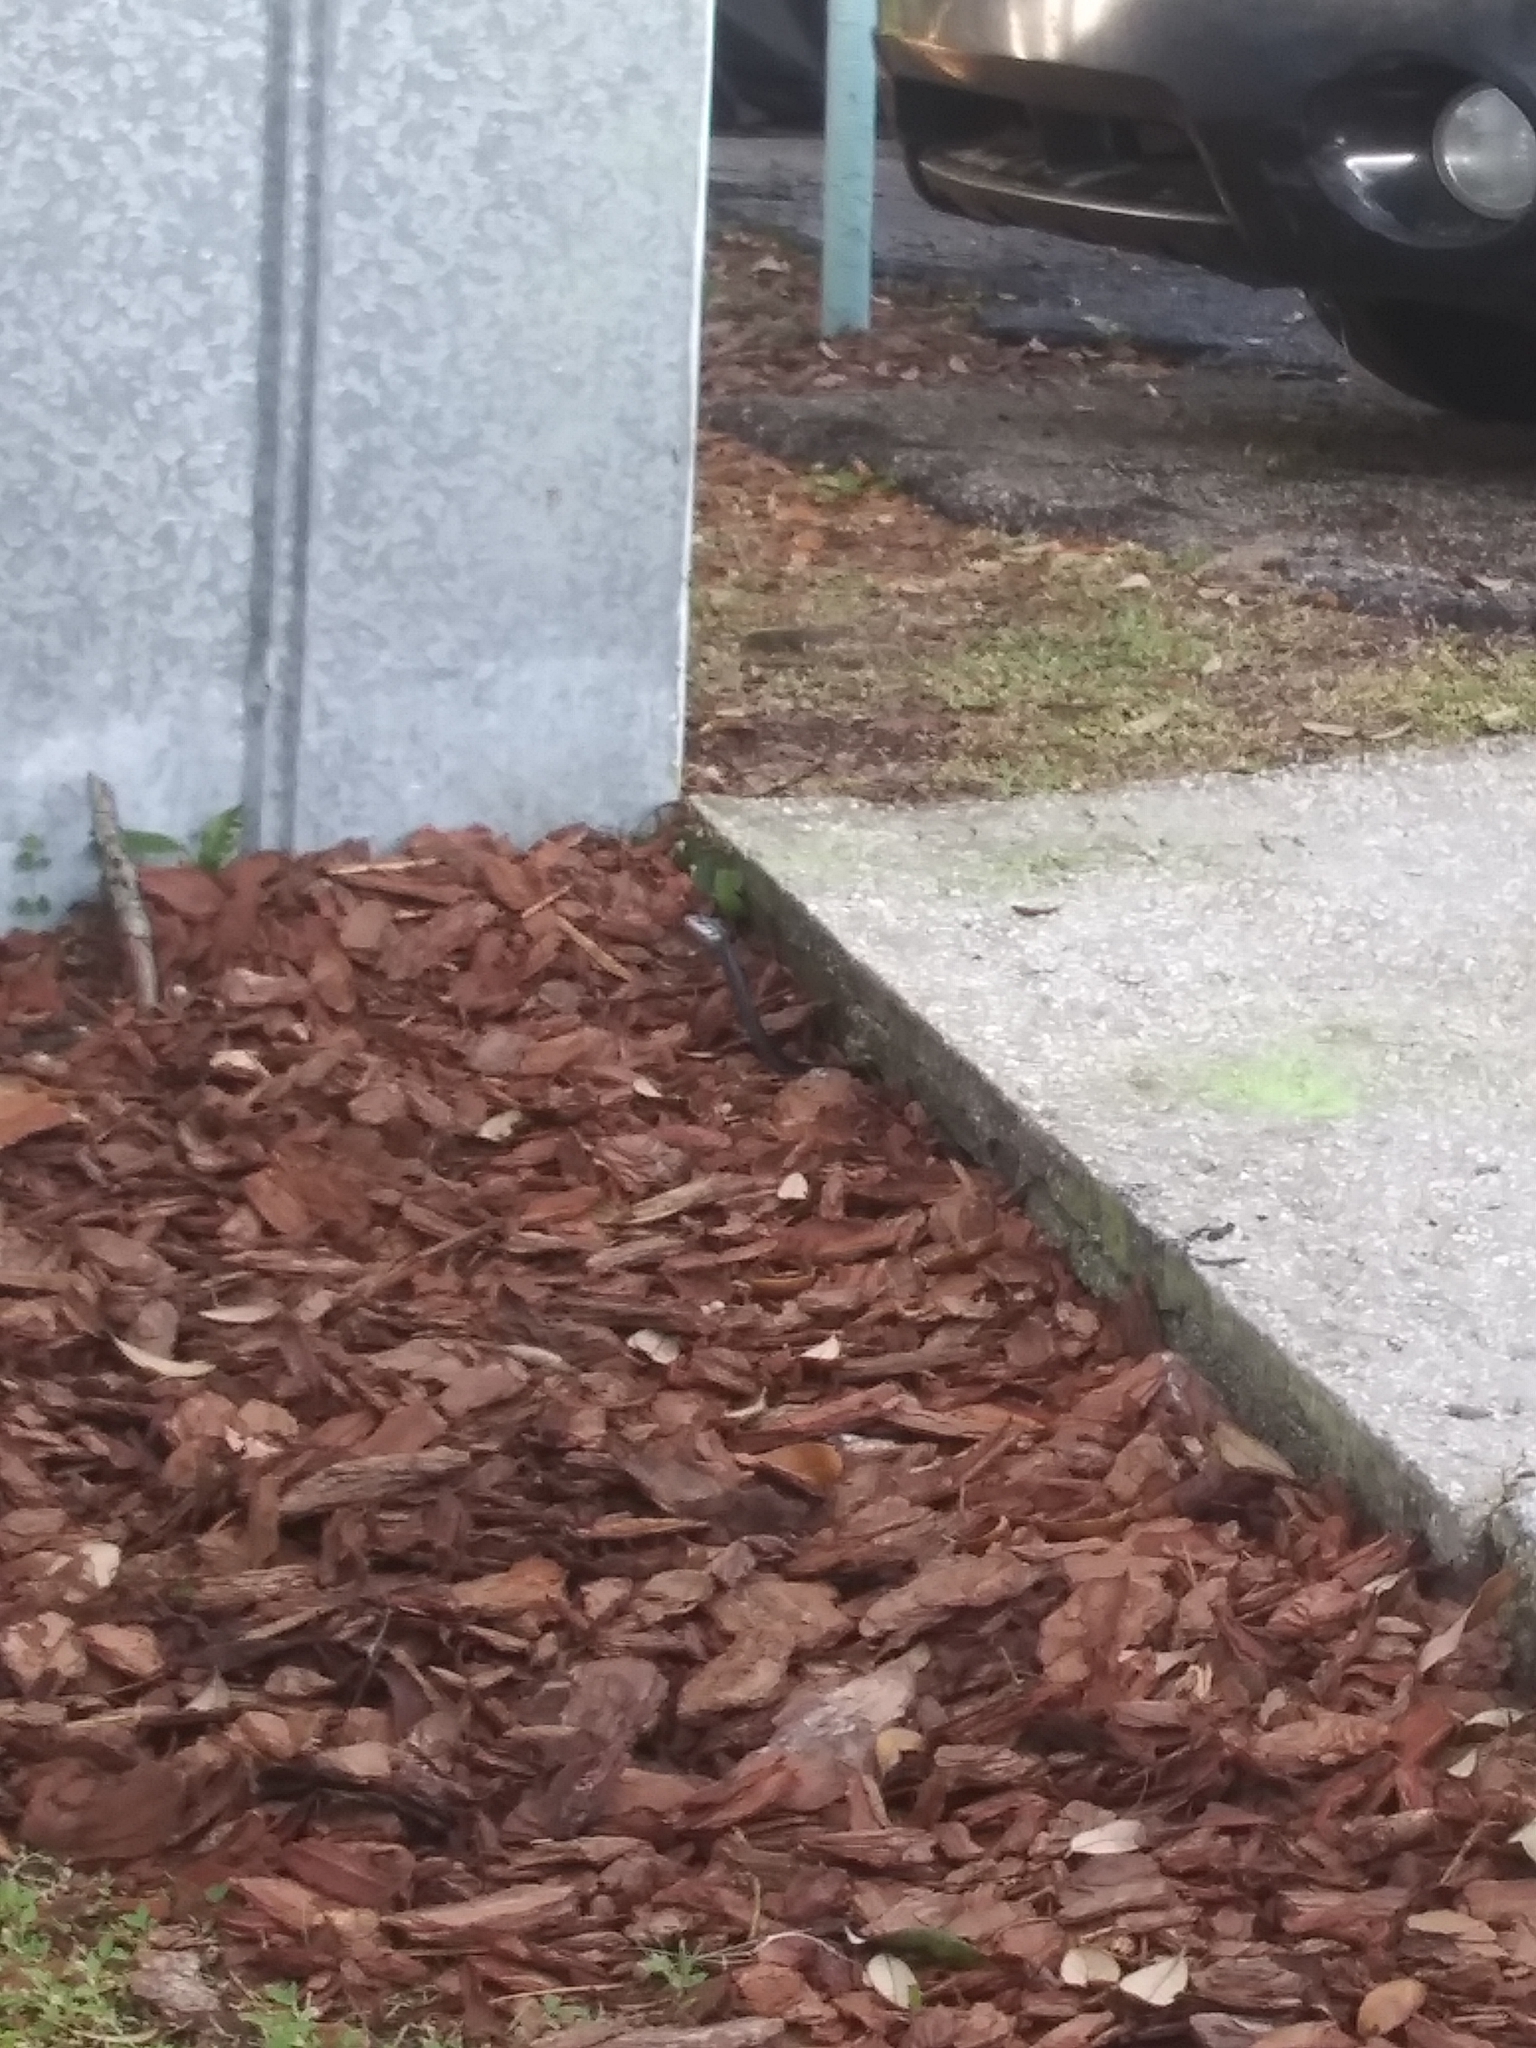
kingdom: Animalia
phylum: Chordata
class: Squamata
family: Colubridae
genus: Coluber
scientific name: Coluber constrictor
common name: Eastern racer
